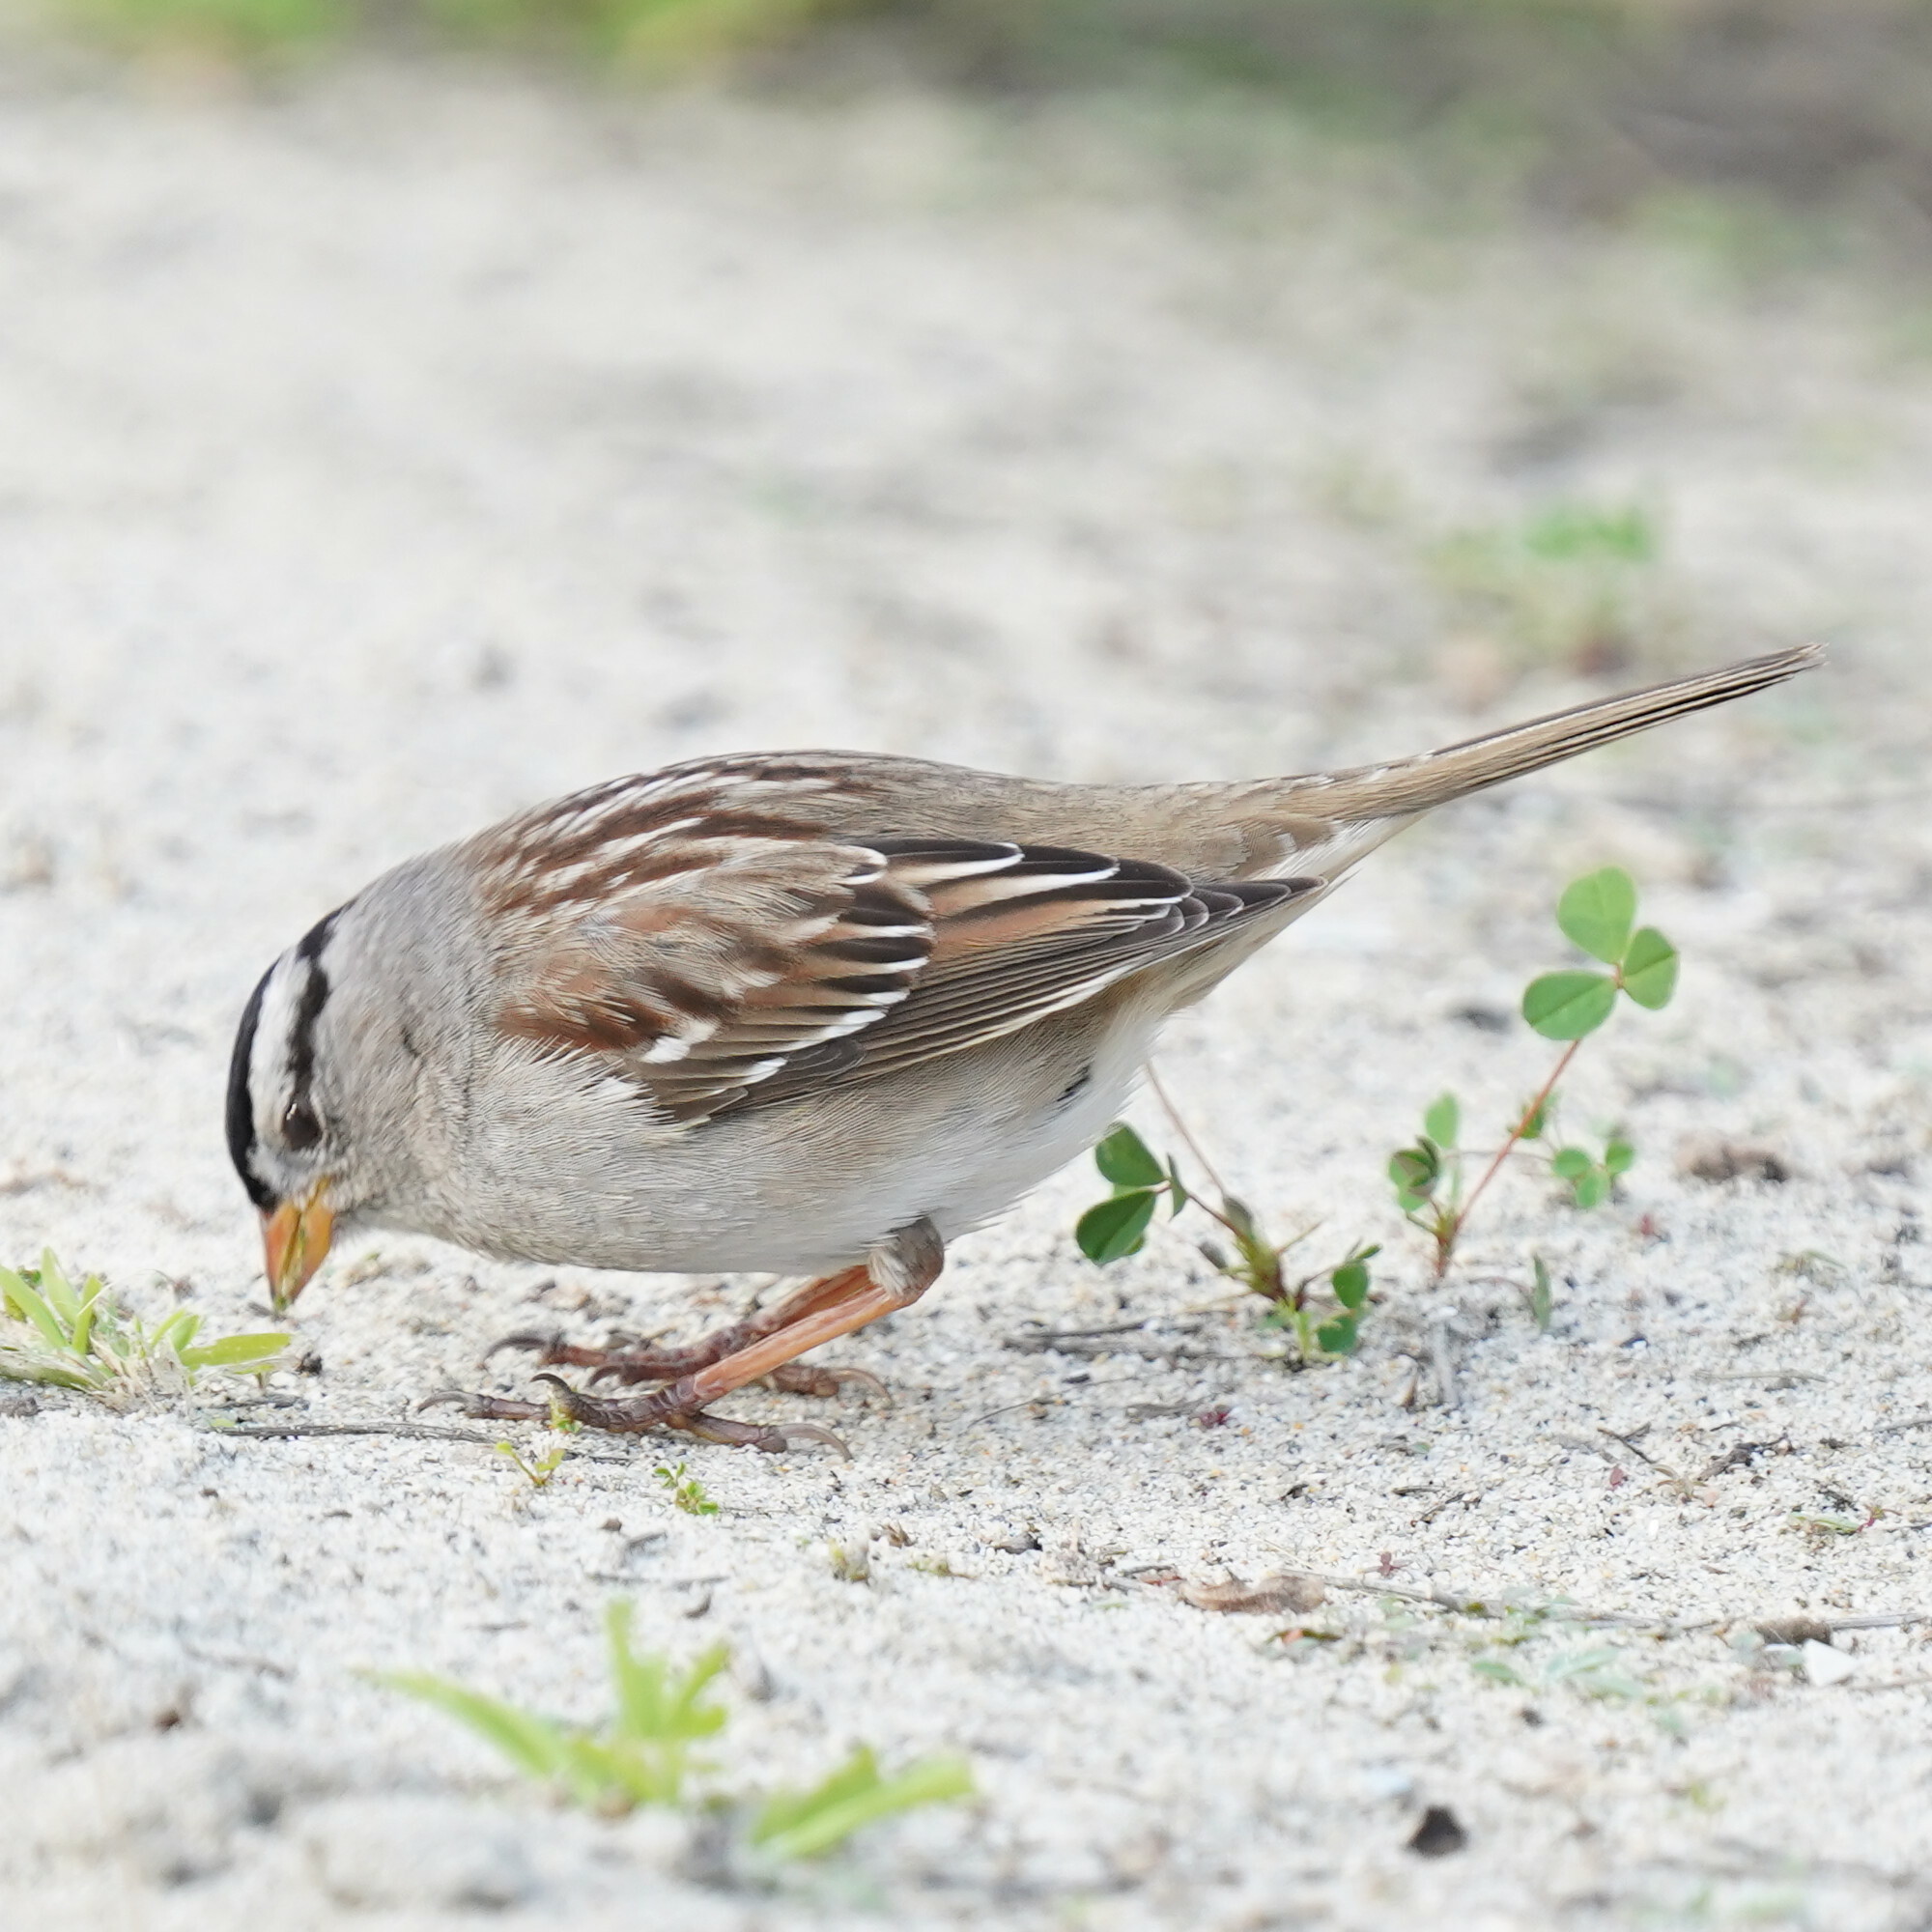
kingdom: Animalia
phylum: Chordata
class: Aves
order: Passeriformes
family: Passerellidae
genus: Zonotrichia
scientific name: Zonotrichia leucophrys
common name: White-crowned sparrow
